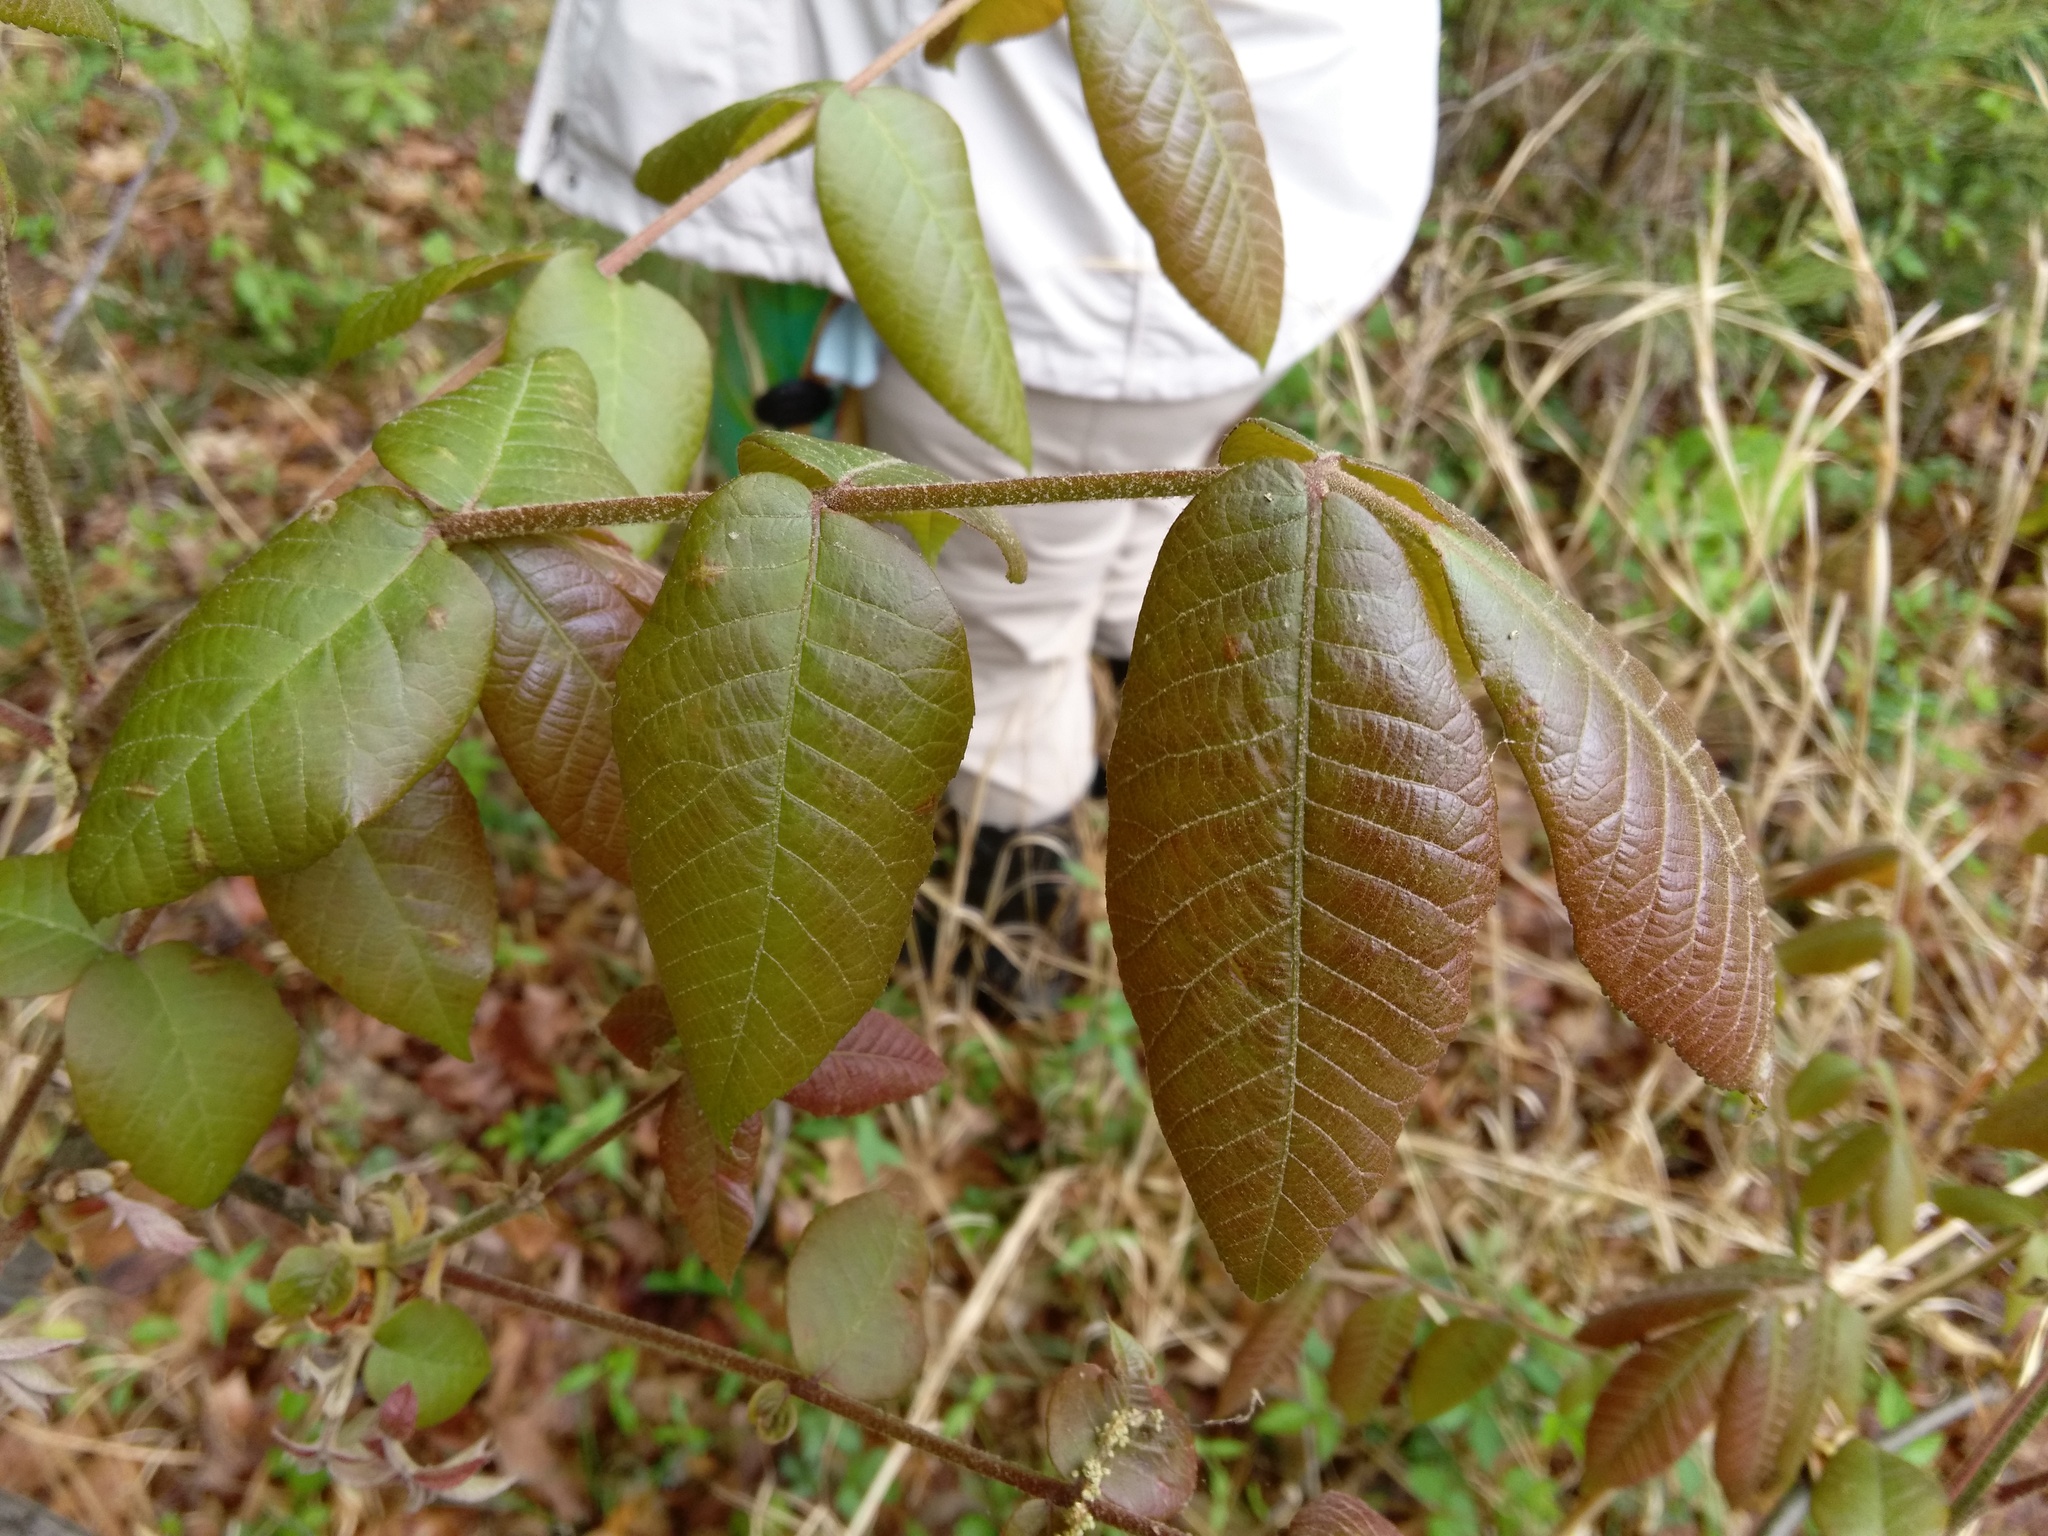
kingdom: Plantae
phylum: Tracheophyta
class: Magnoliopsida
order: Fagales
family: Juglandaceae
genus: Carya
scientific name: Carya alba
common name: Mockernut hickory
